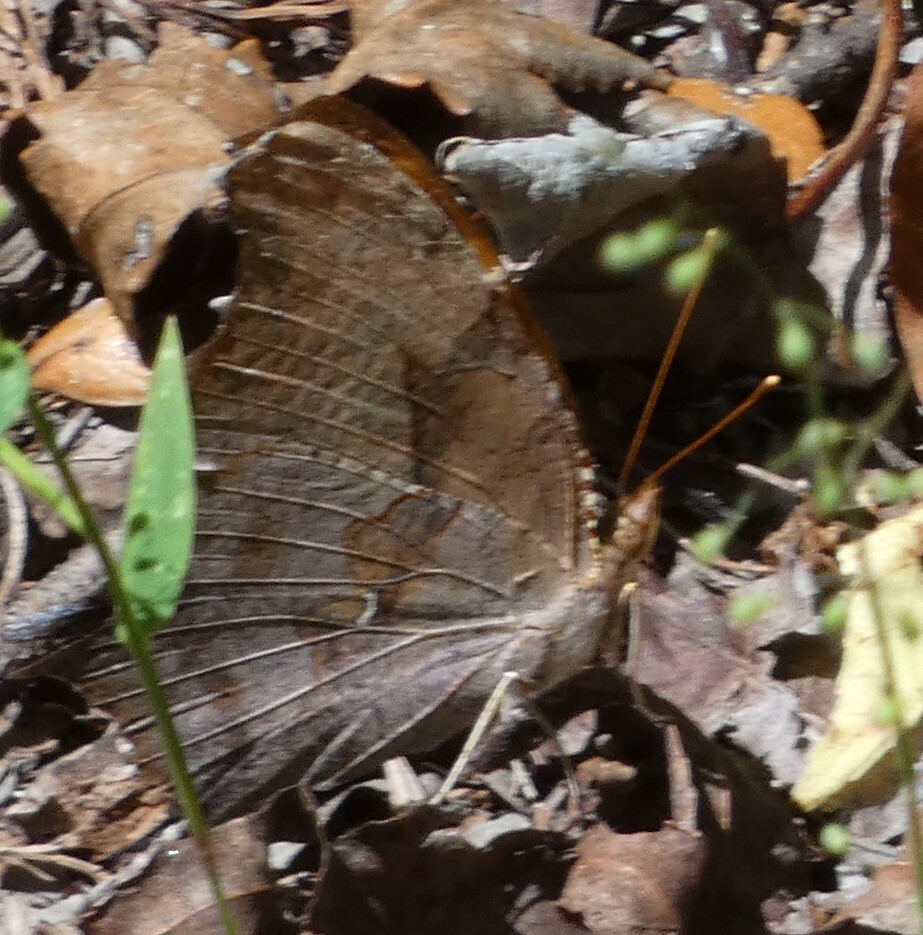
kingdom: Animalia
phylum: Arthropoda
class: Insecta
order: Lepidoptera
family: Nymphalidae
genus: Polygonia
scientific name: Polygonia interrogationis
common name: Question mark
